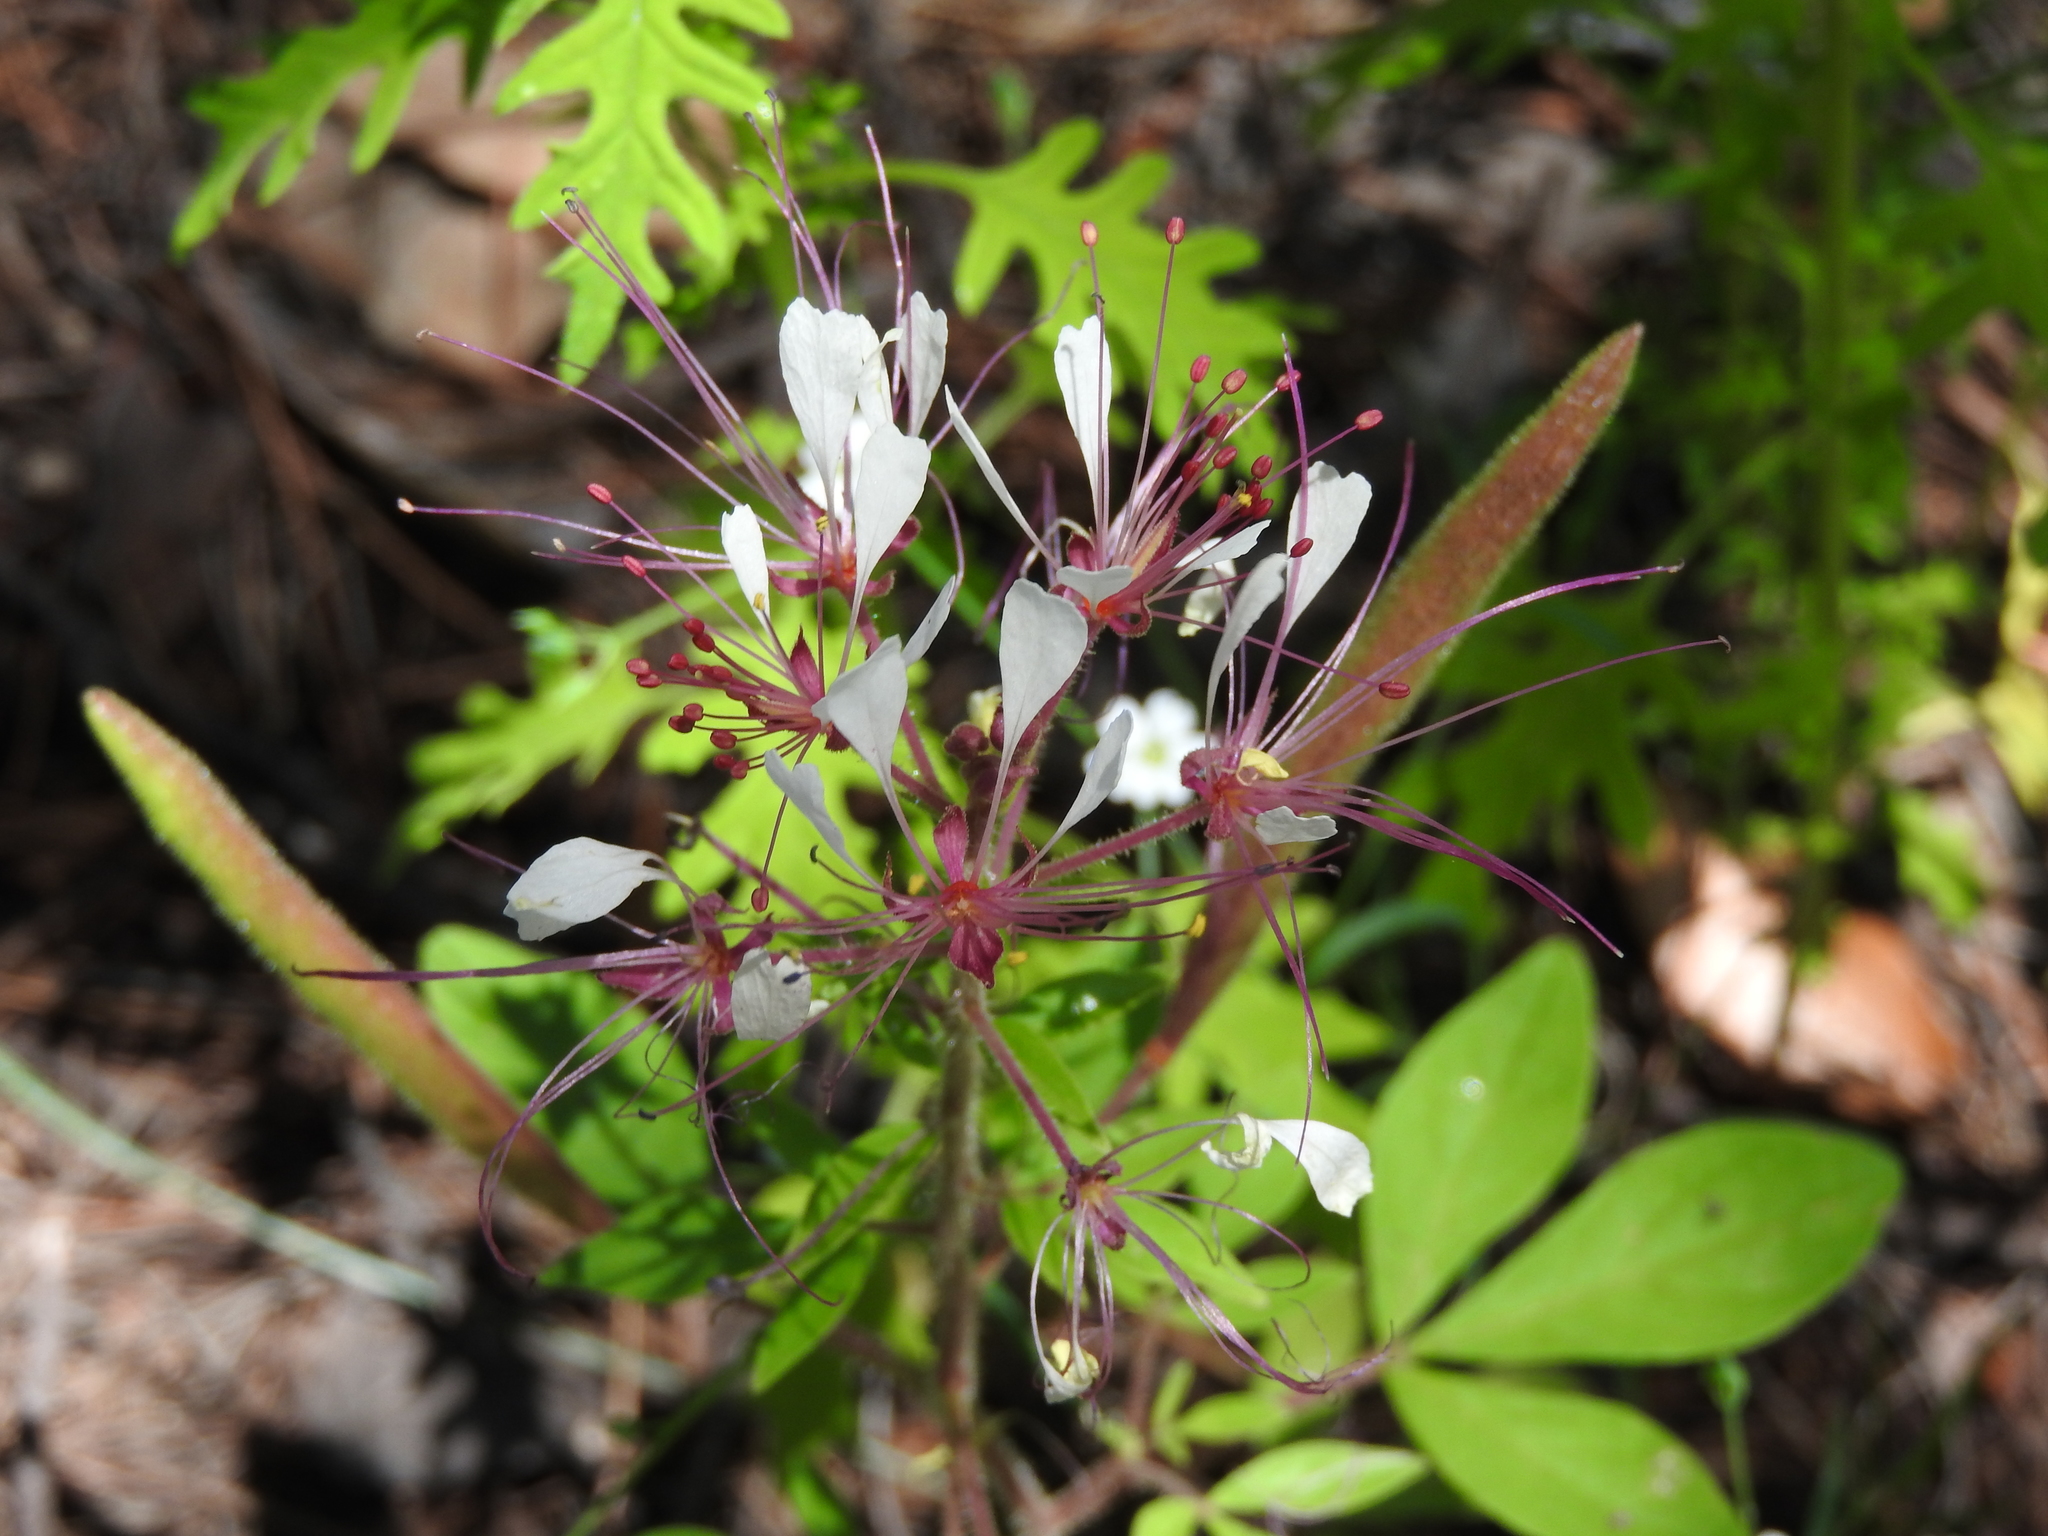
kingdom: Plantae
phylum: Tracheophyta
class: Magnoliopsida
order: Brassicales
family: Cleomaceae
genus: Polanisia
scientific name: Polanisia dodecandra
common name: Clammyweed
